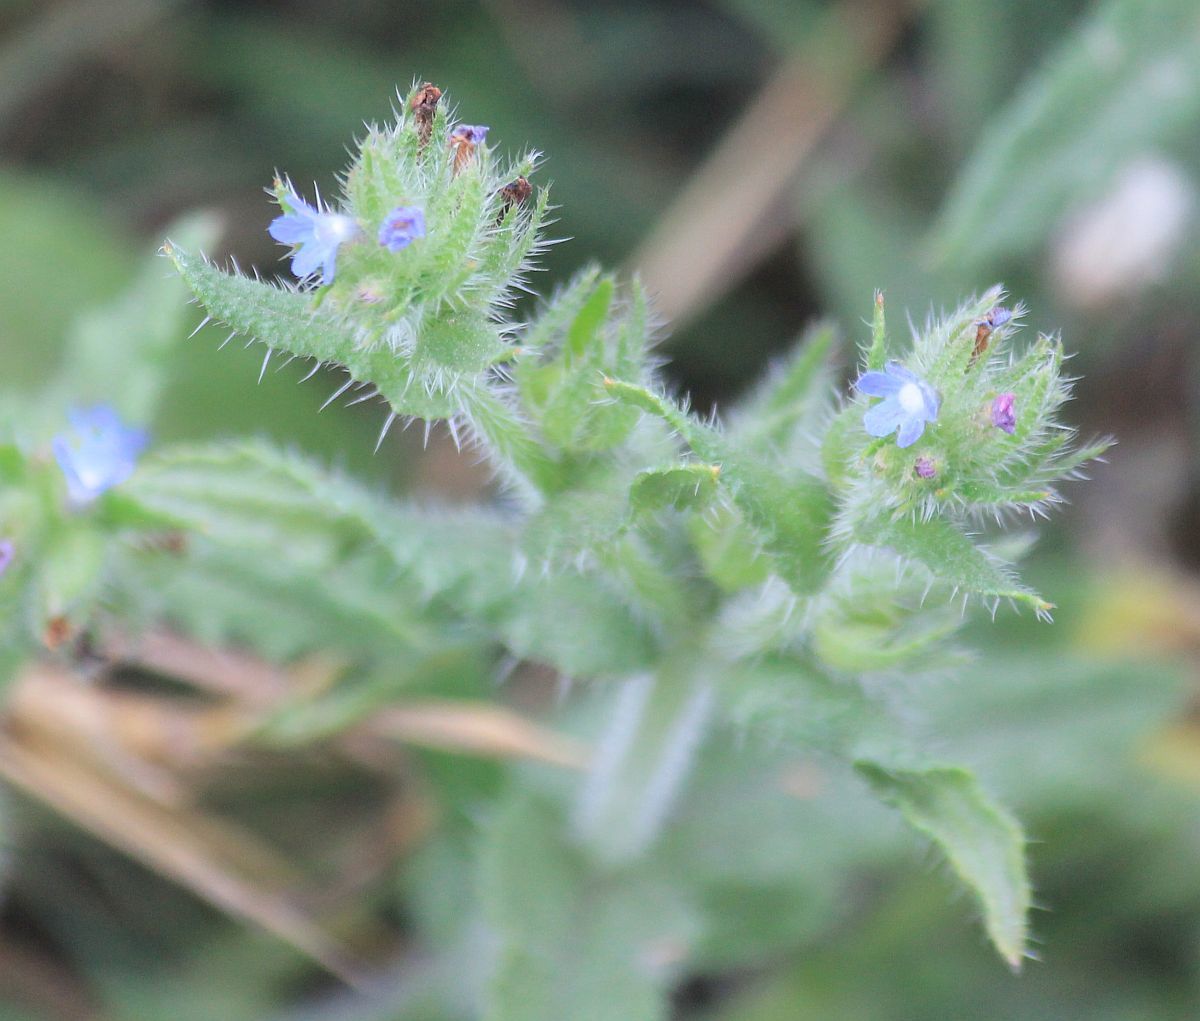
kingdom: Plantae
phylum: Tracheophyta
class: Magnoliopsida
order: Boraginales
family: Boraginaceae
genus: Lycopsis
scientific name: Lycopsis arvensis
